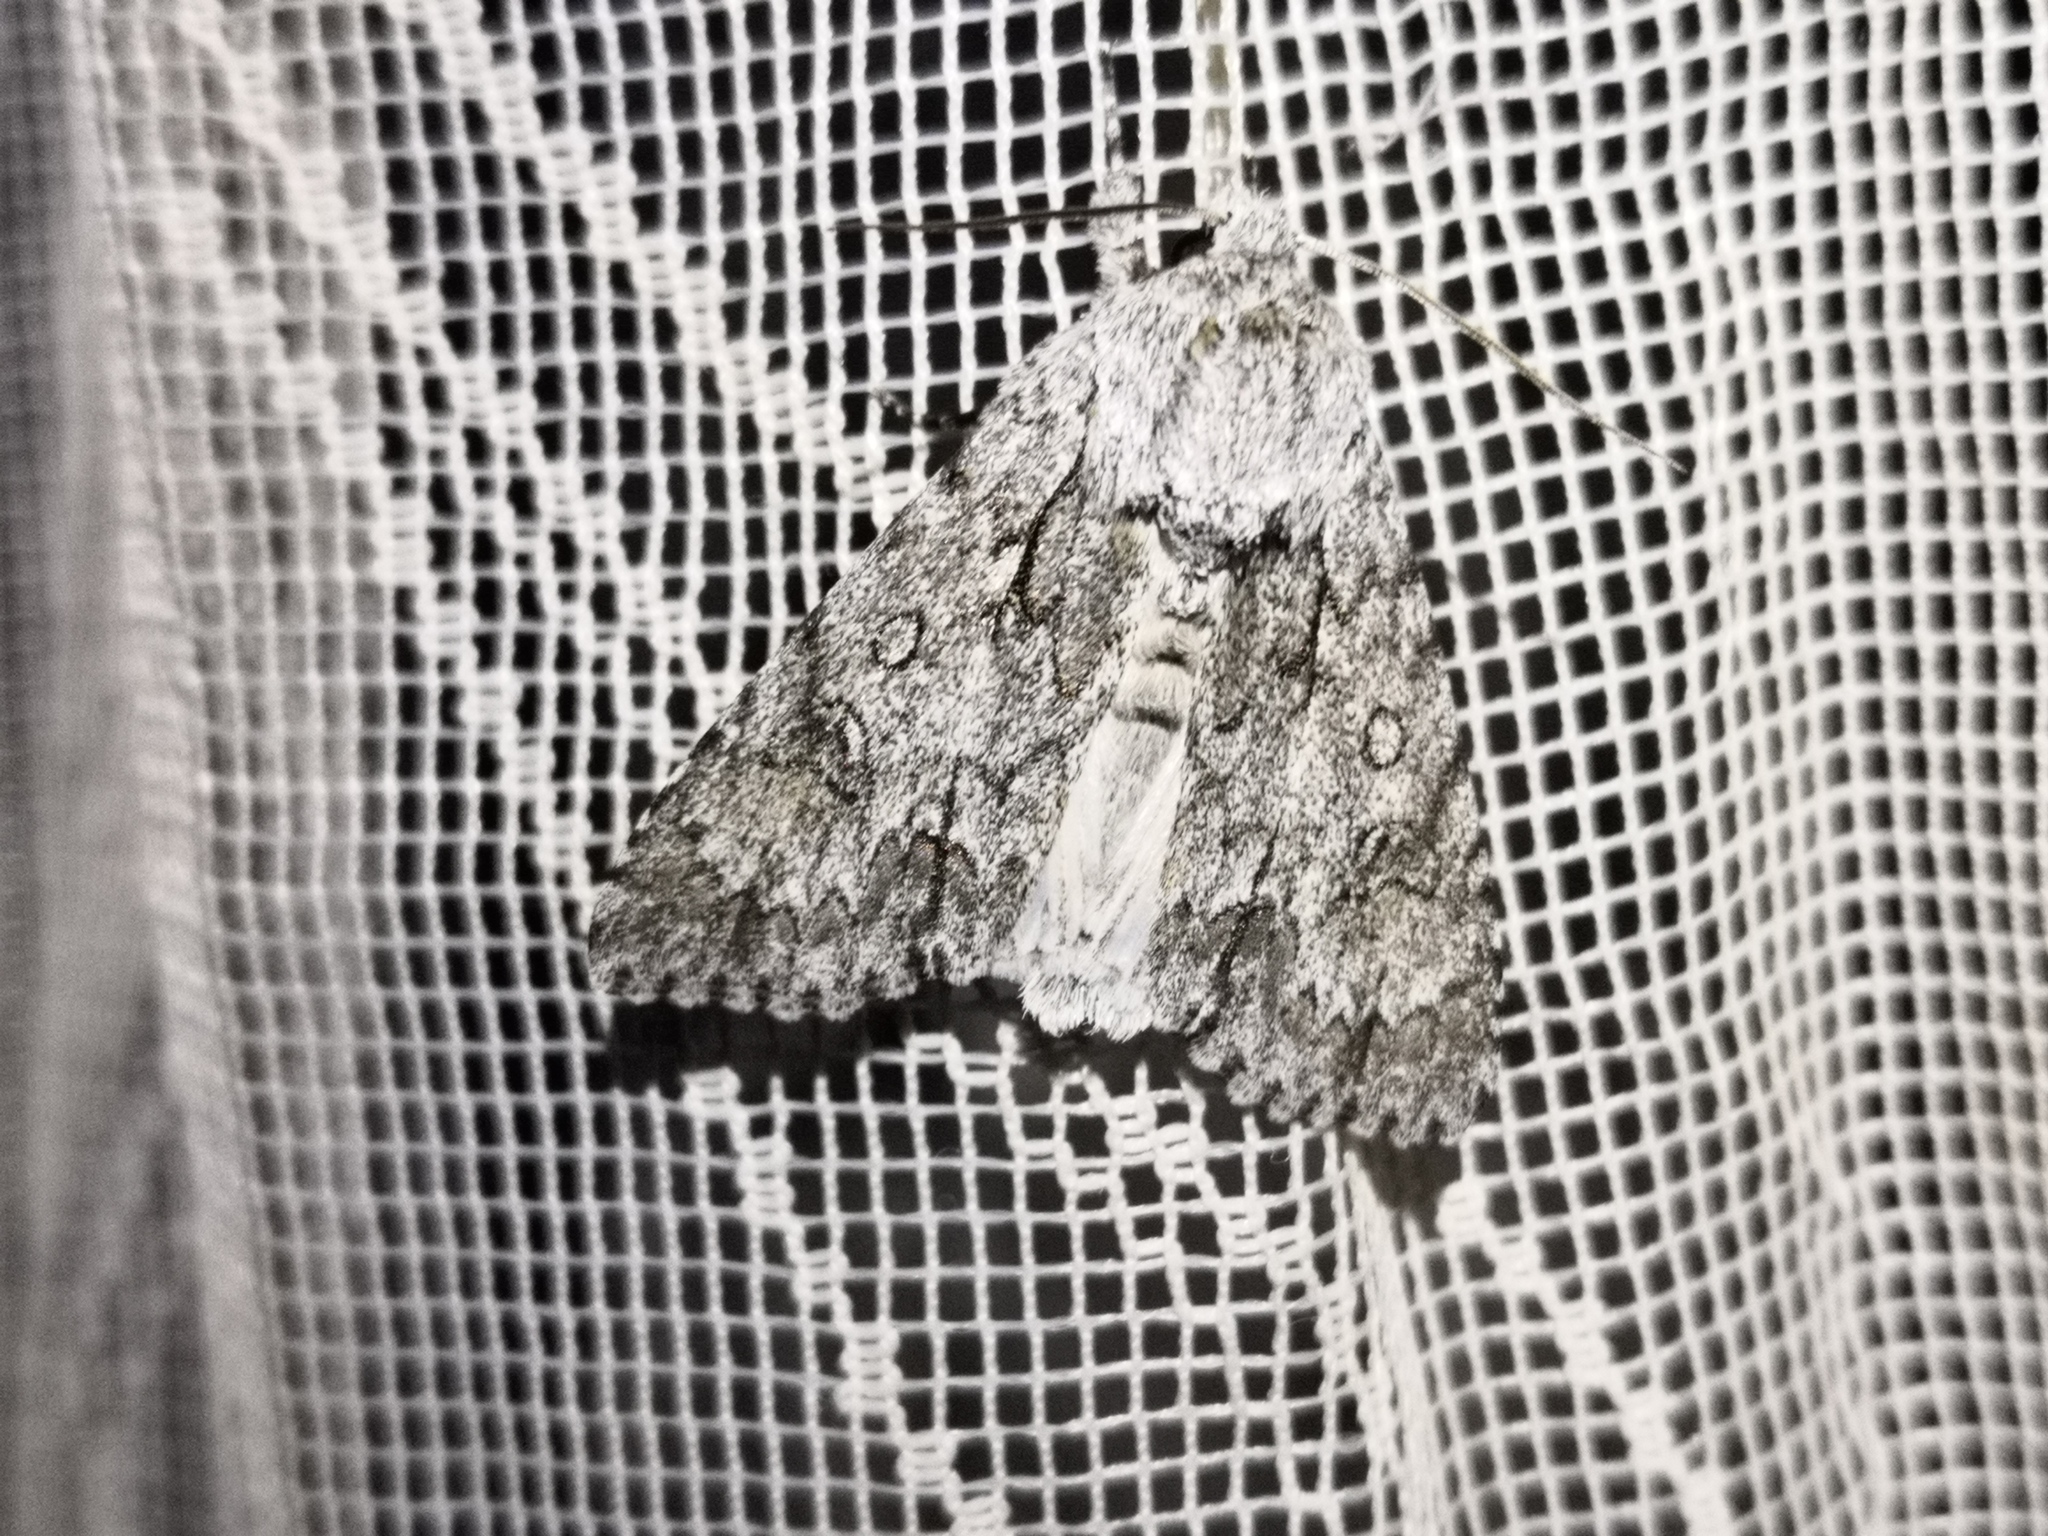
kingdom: Animalia
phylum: Arthropoda
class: Insecta
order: Lepidoptera
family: Noctuidae
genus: Acronicta
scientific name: Acronicta aceris
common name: Sycamore
